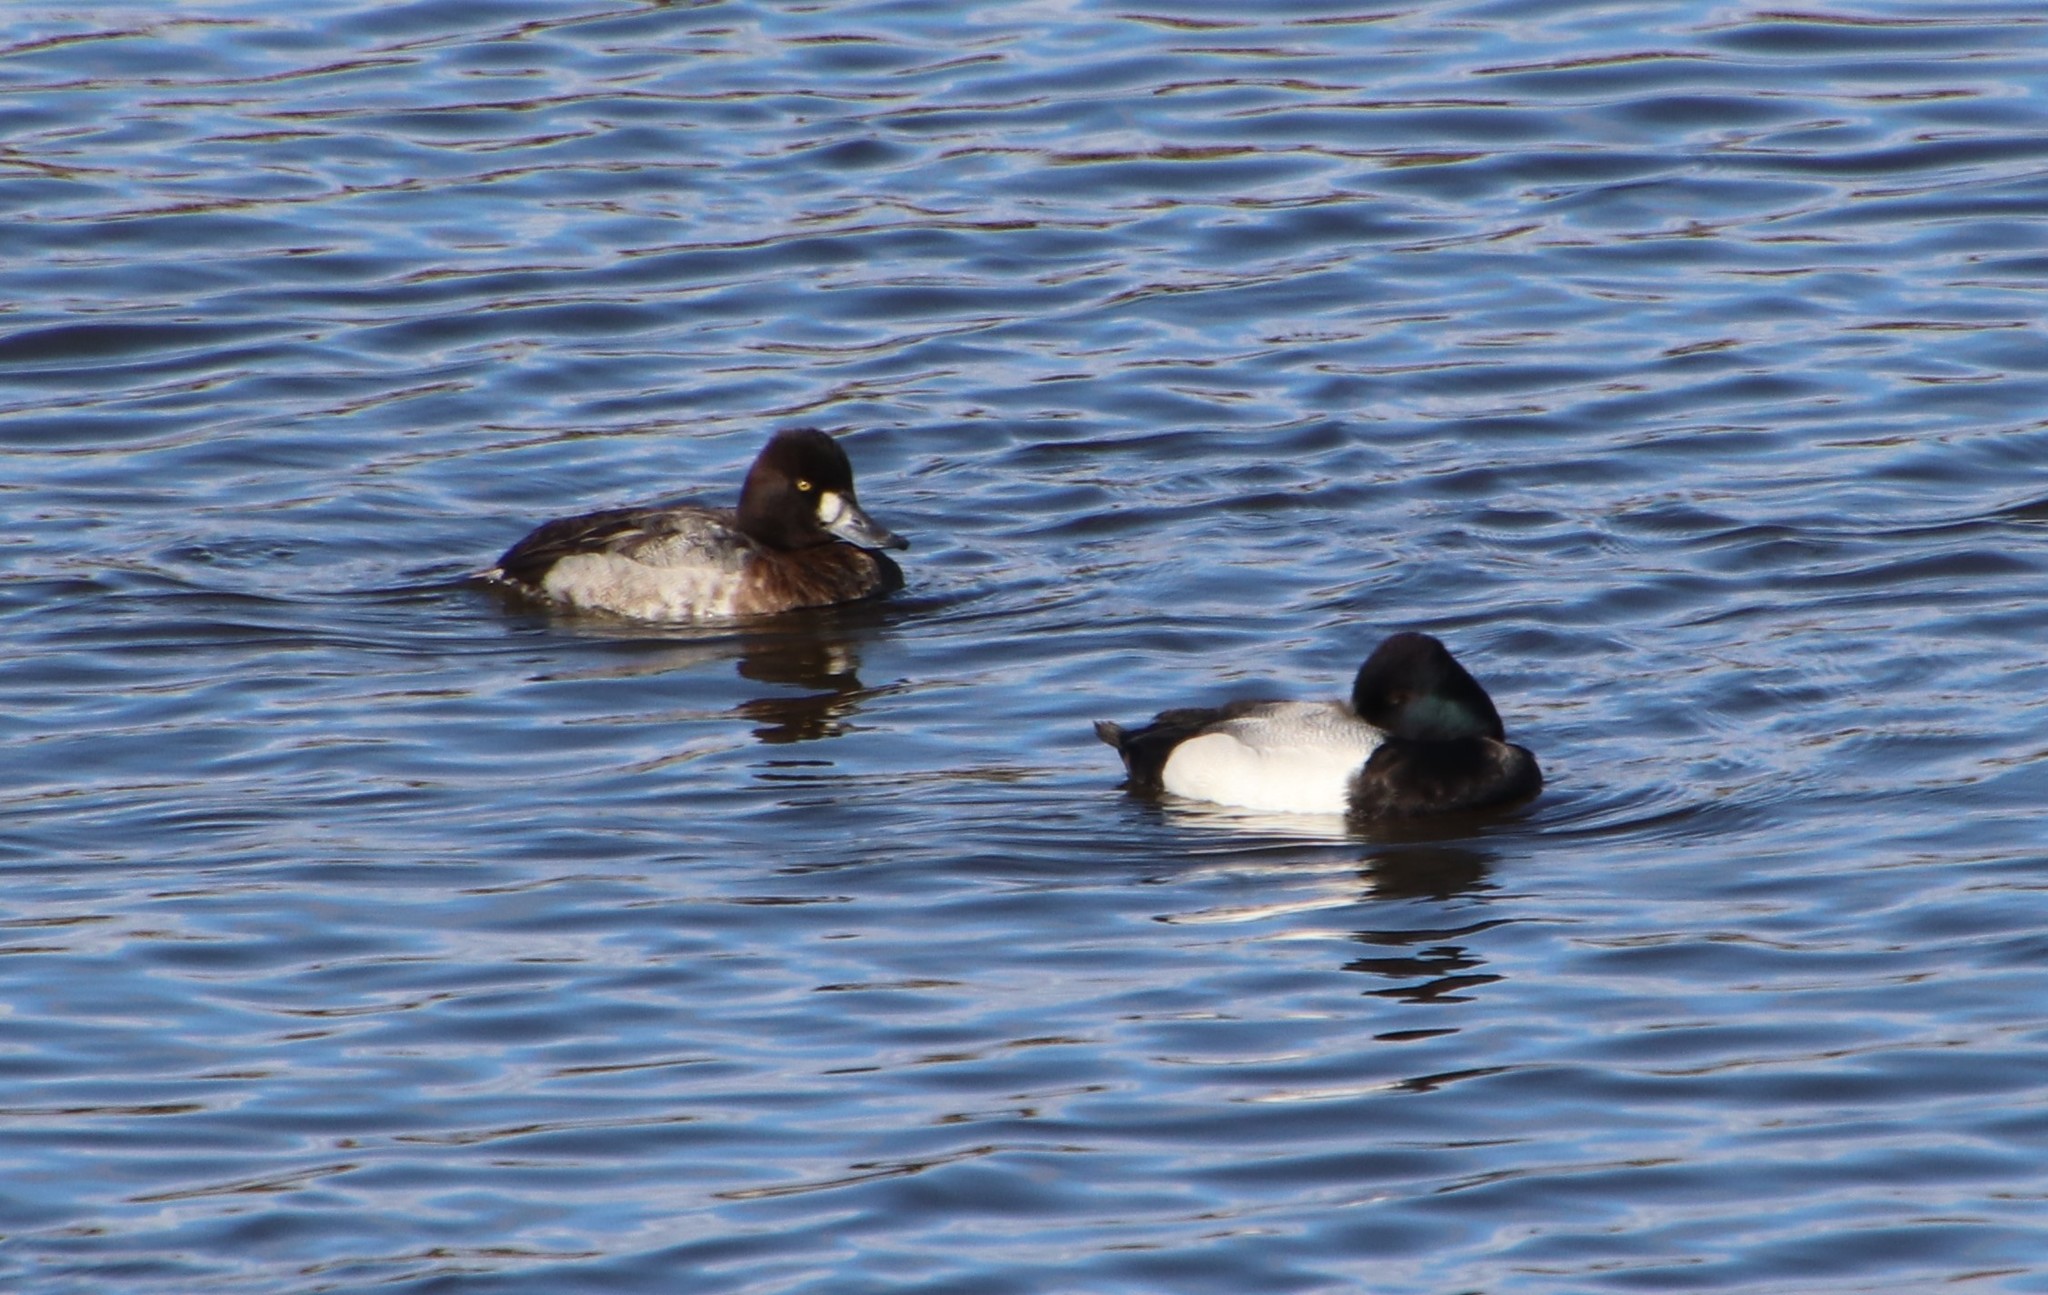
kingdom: Animalia
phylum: Chordata
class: Aves
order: Anseriformes
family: Anatidae
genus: Aythya
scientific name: Aythya affinis
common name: Lesser scaup
